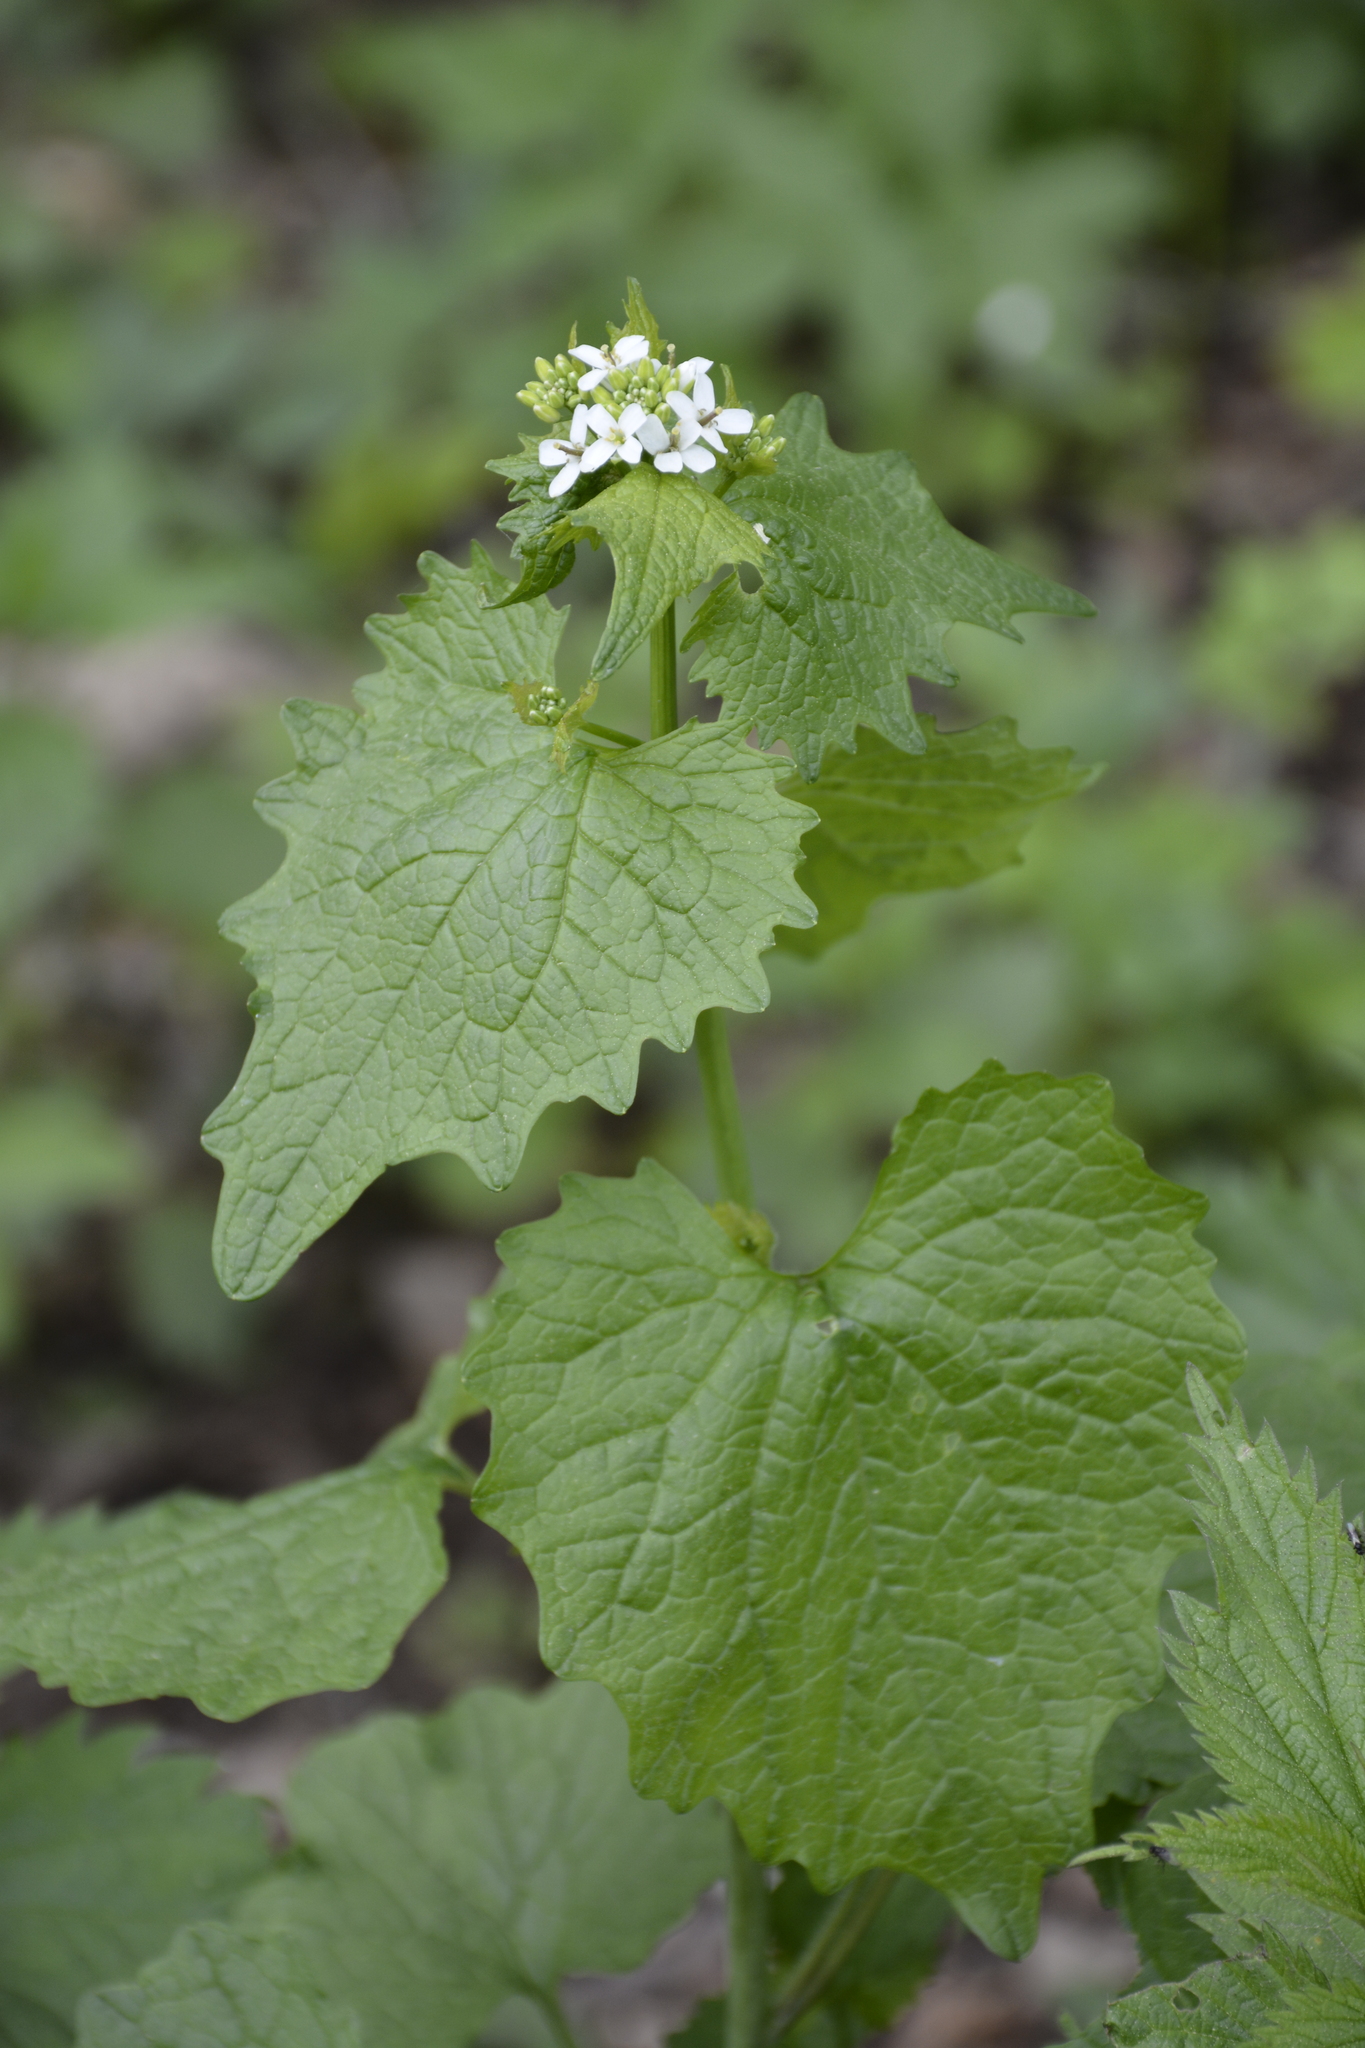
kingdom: Plantae
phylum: Tracheophyta
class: Magnoliopsida
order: Brassicales
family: Brassicaceae
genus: Alliaria
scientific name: Alliaria petiolata
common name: Garlic mustard
